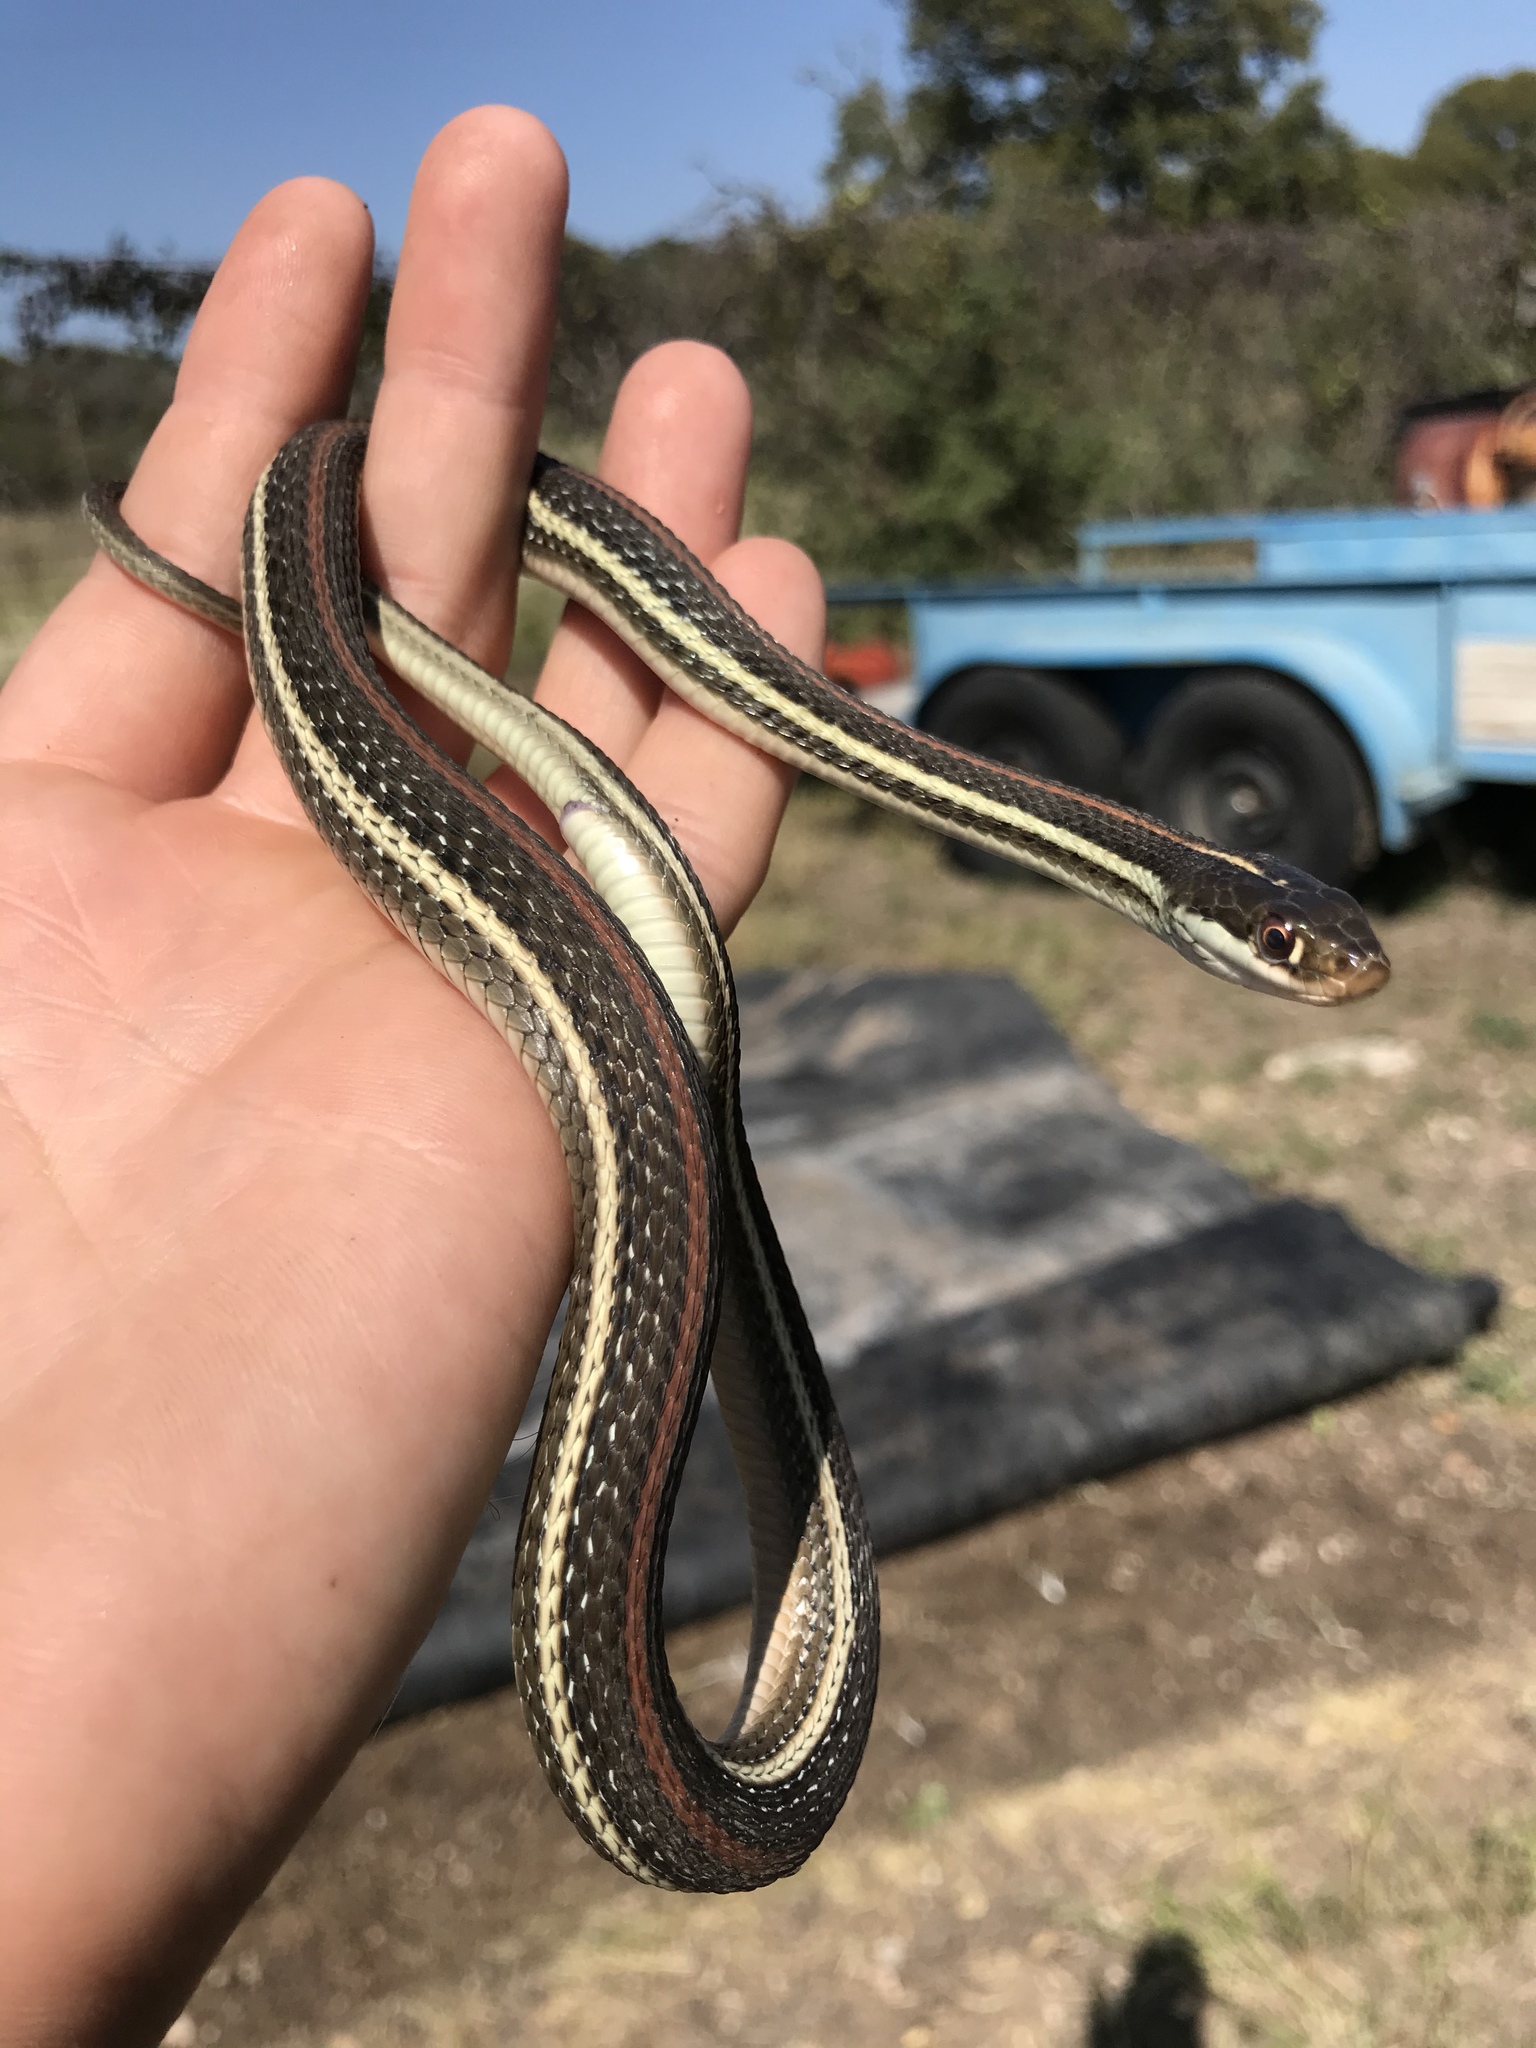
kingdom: Animalia
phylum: Chordata
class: Squamata
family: Colubridae
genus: Thamnophis
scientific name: Thamnophis proximus
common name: Western ribbon snake
